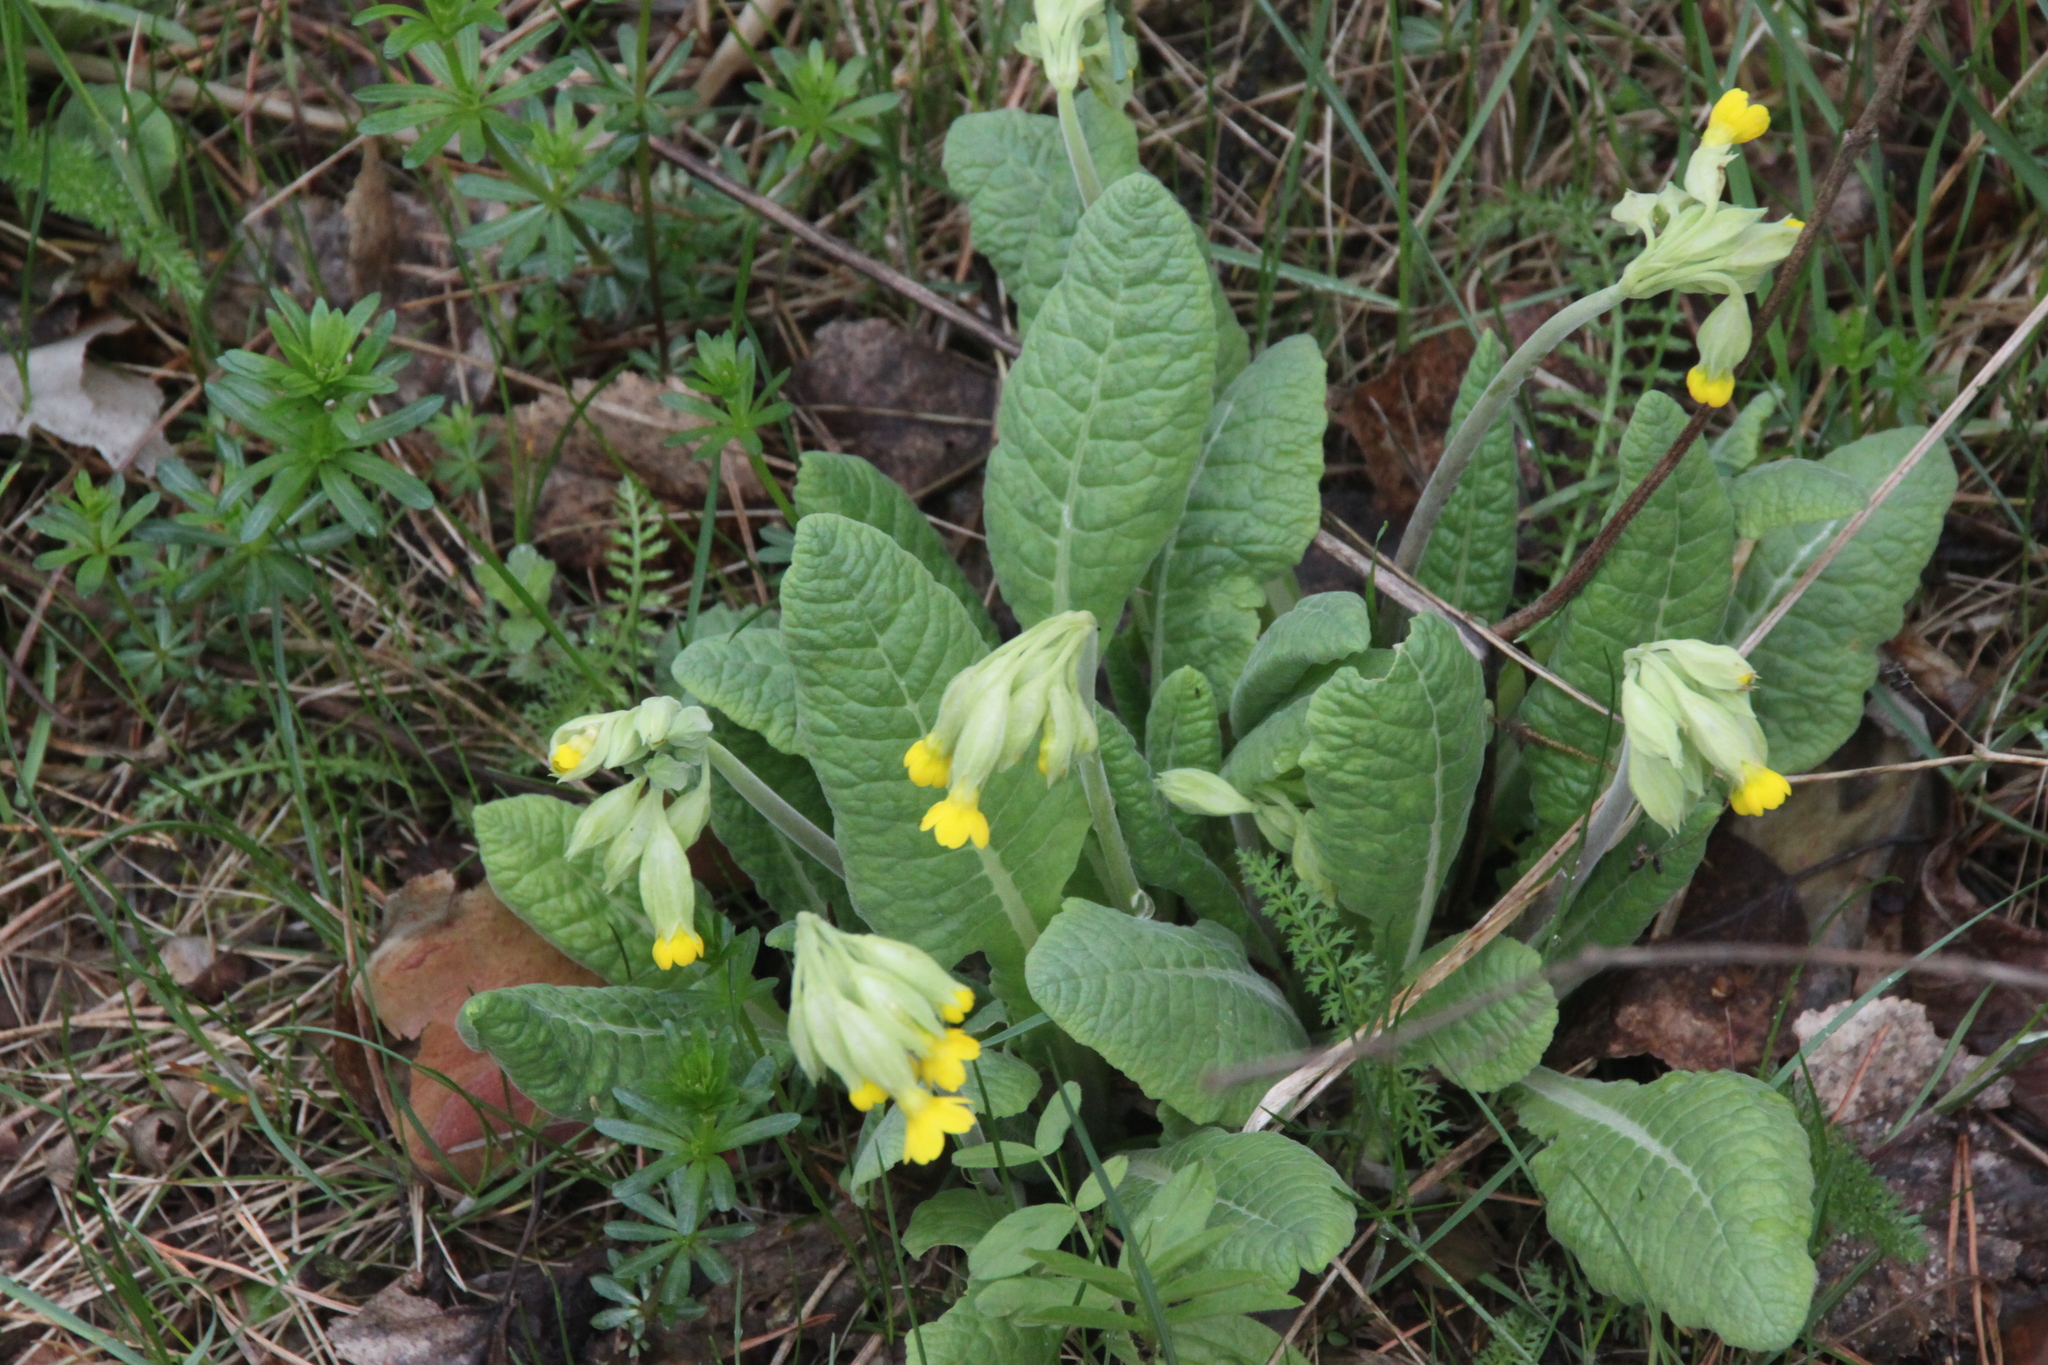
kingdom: Plantae
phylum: Tracheophyta
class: Magnoliopsida
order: Ericales
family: Primulaceae
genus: Primula
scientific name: Primula veris
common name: Cowslip
